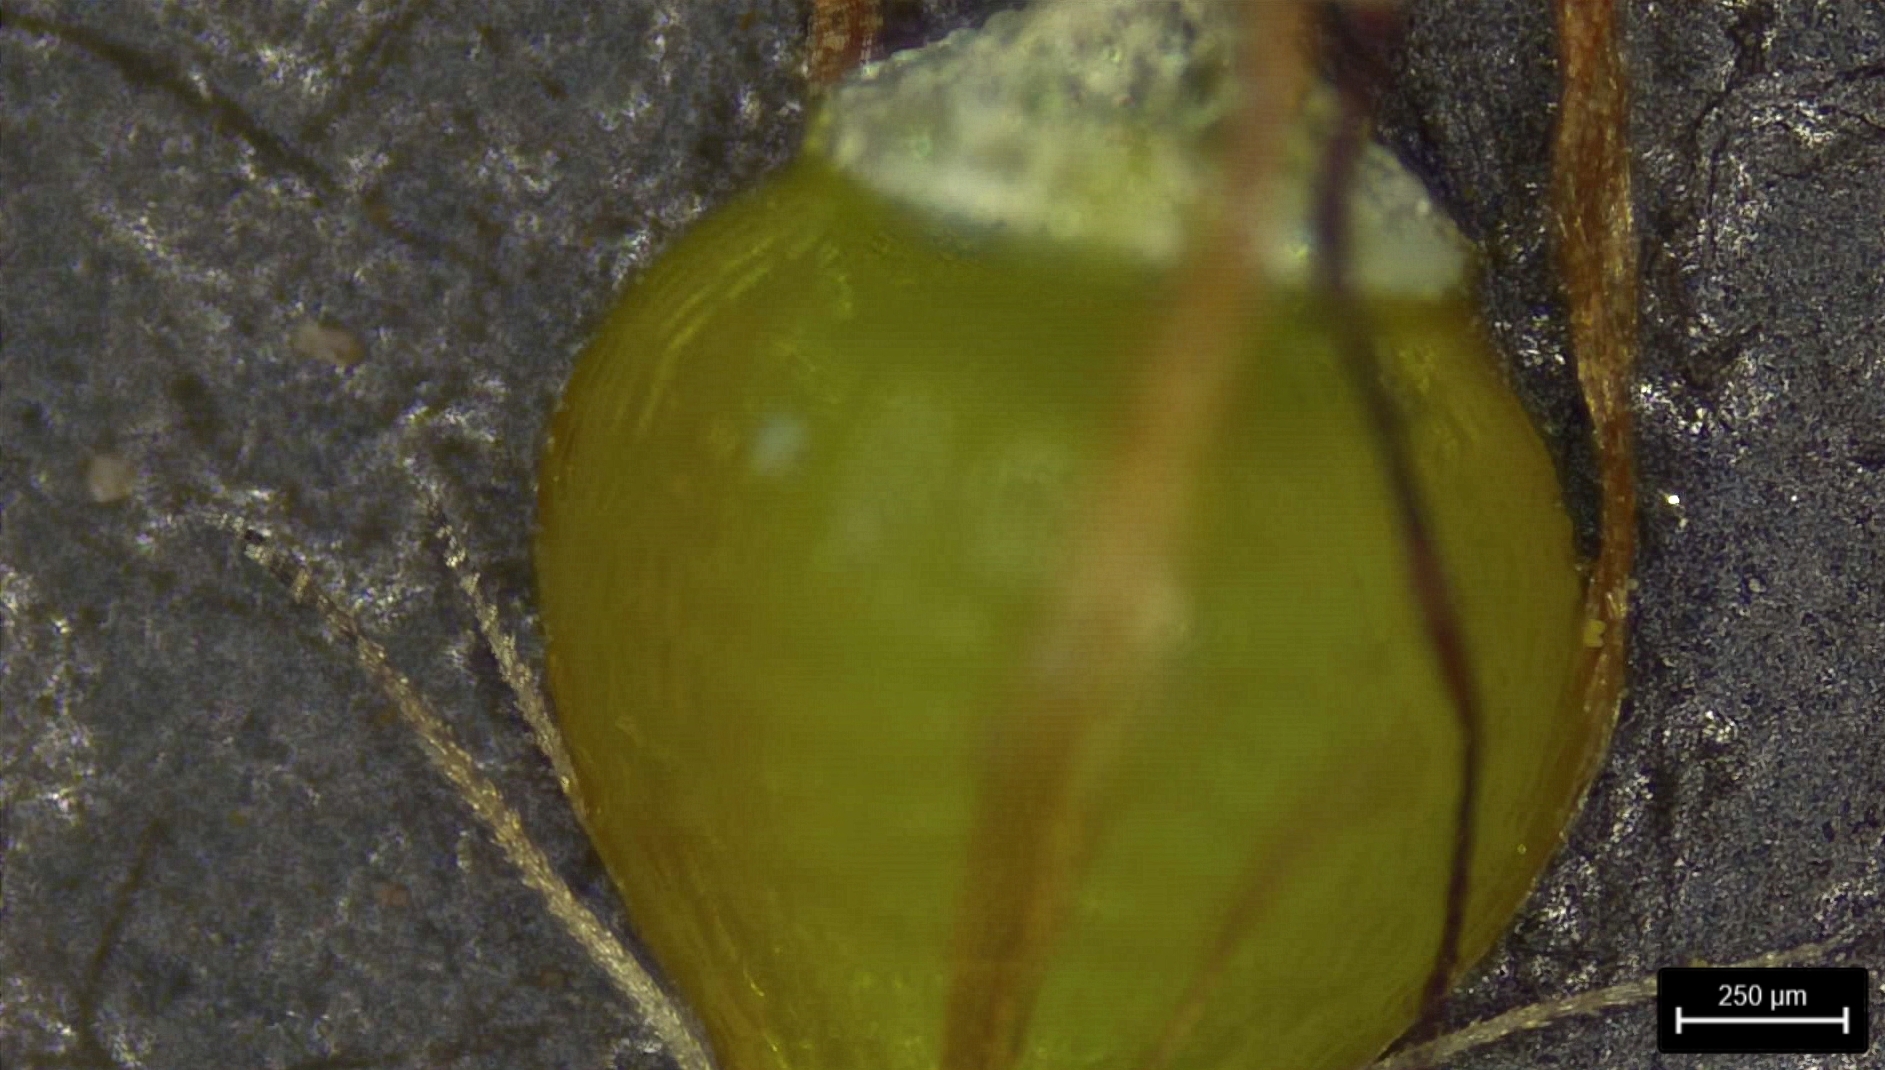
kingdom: Plantae
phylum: Tracheophyta
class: Liliopsida
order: Poales
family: Cyperaceae
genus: Rhynchospora
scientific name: Rhynchospora recognita
